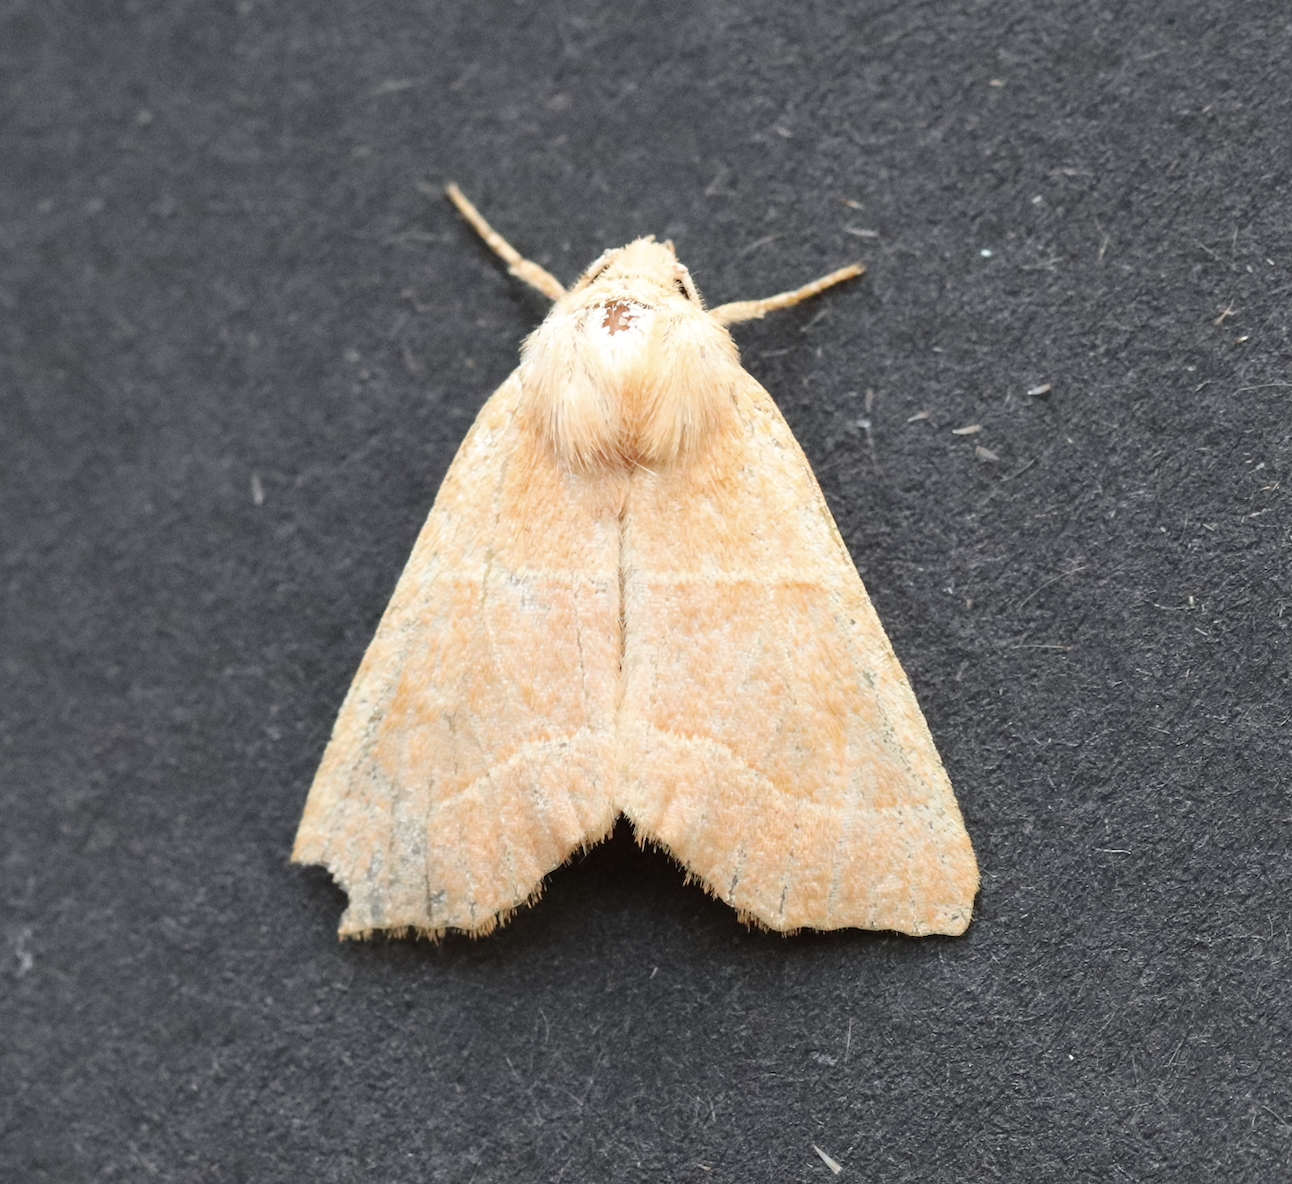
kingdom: Animalia
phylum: Arthropoda
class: Insecta
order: Lepidoptera
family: Noctuidae
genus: Atethmia
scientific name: Atethmia centrago
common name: Centre-barred sallow
